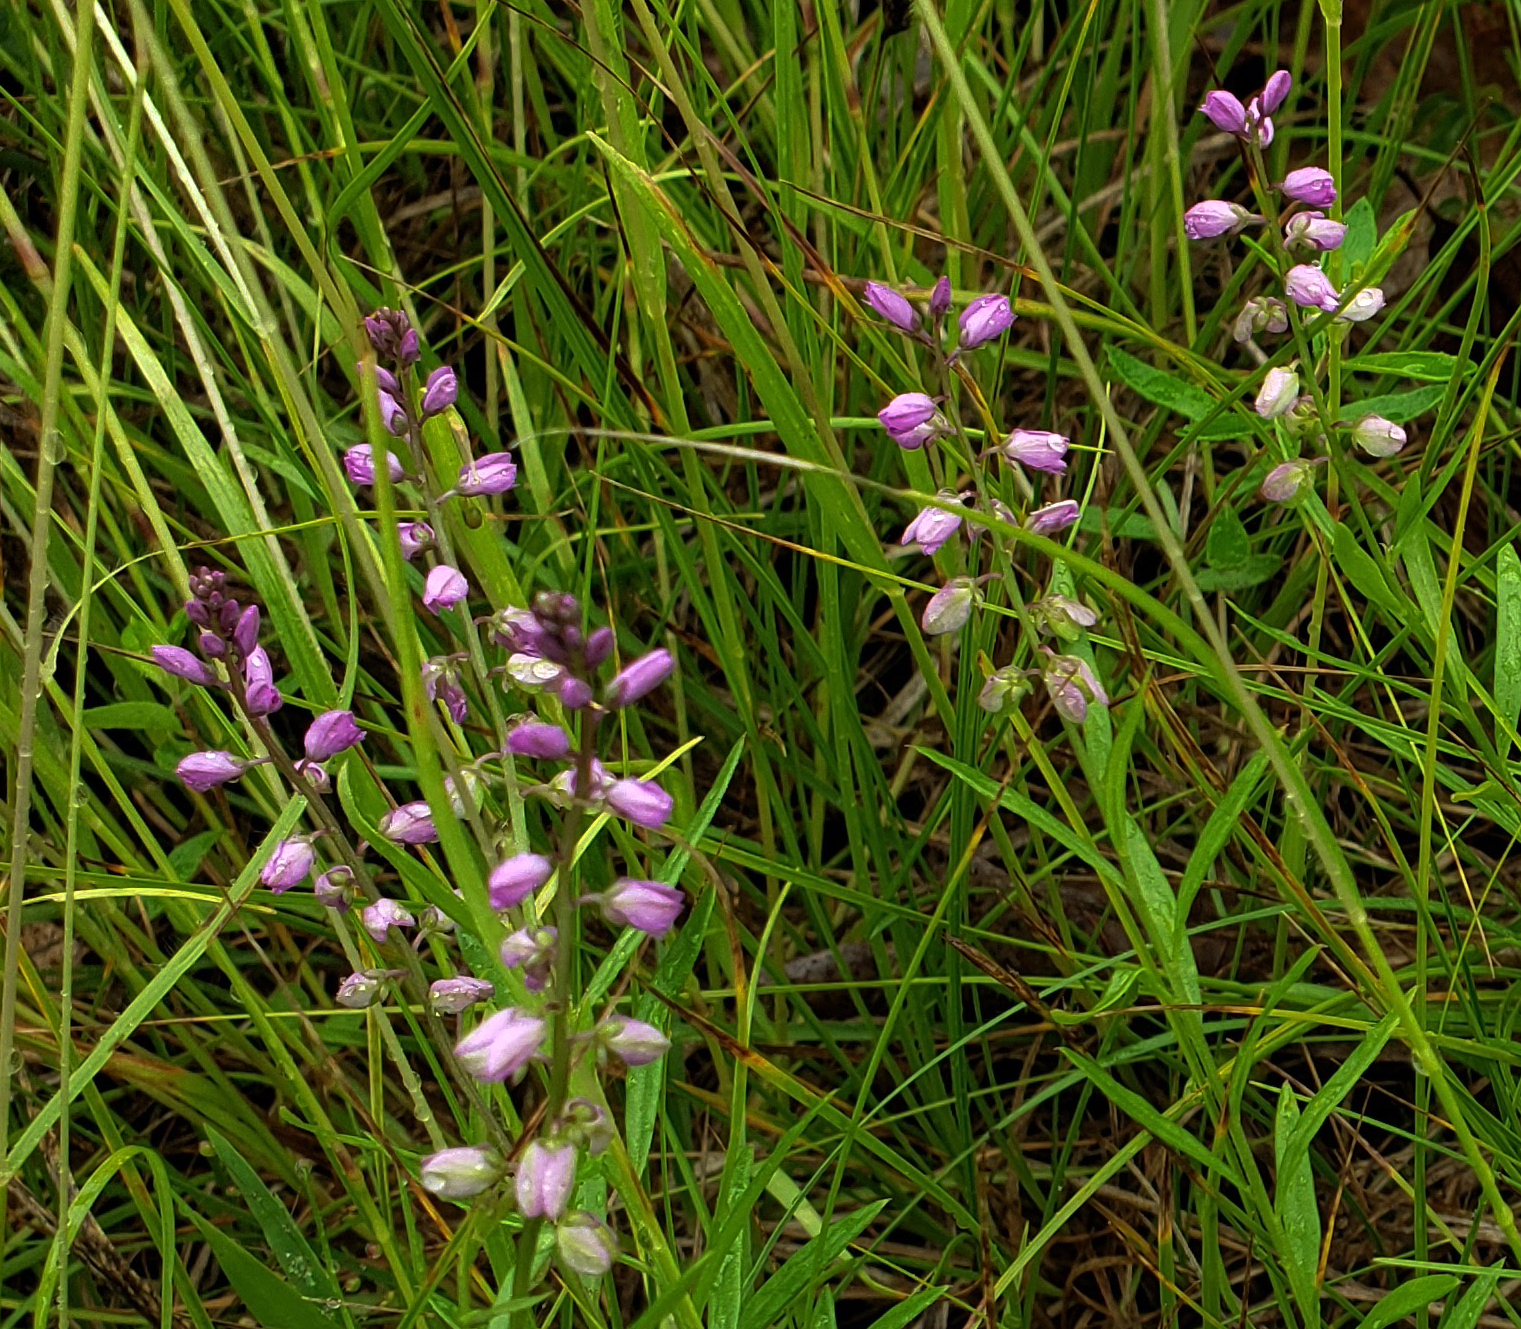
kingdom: Plantae
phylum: Tracheophyta
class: Magnoliopsida
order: Fabales
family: Polygalaceae
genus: Polygala
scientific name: Polygala polygama
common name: Bitter milkwort
